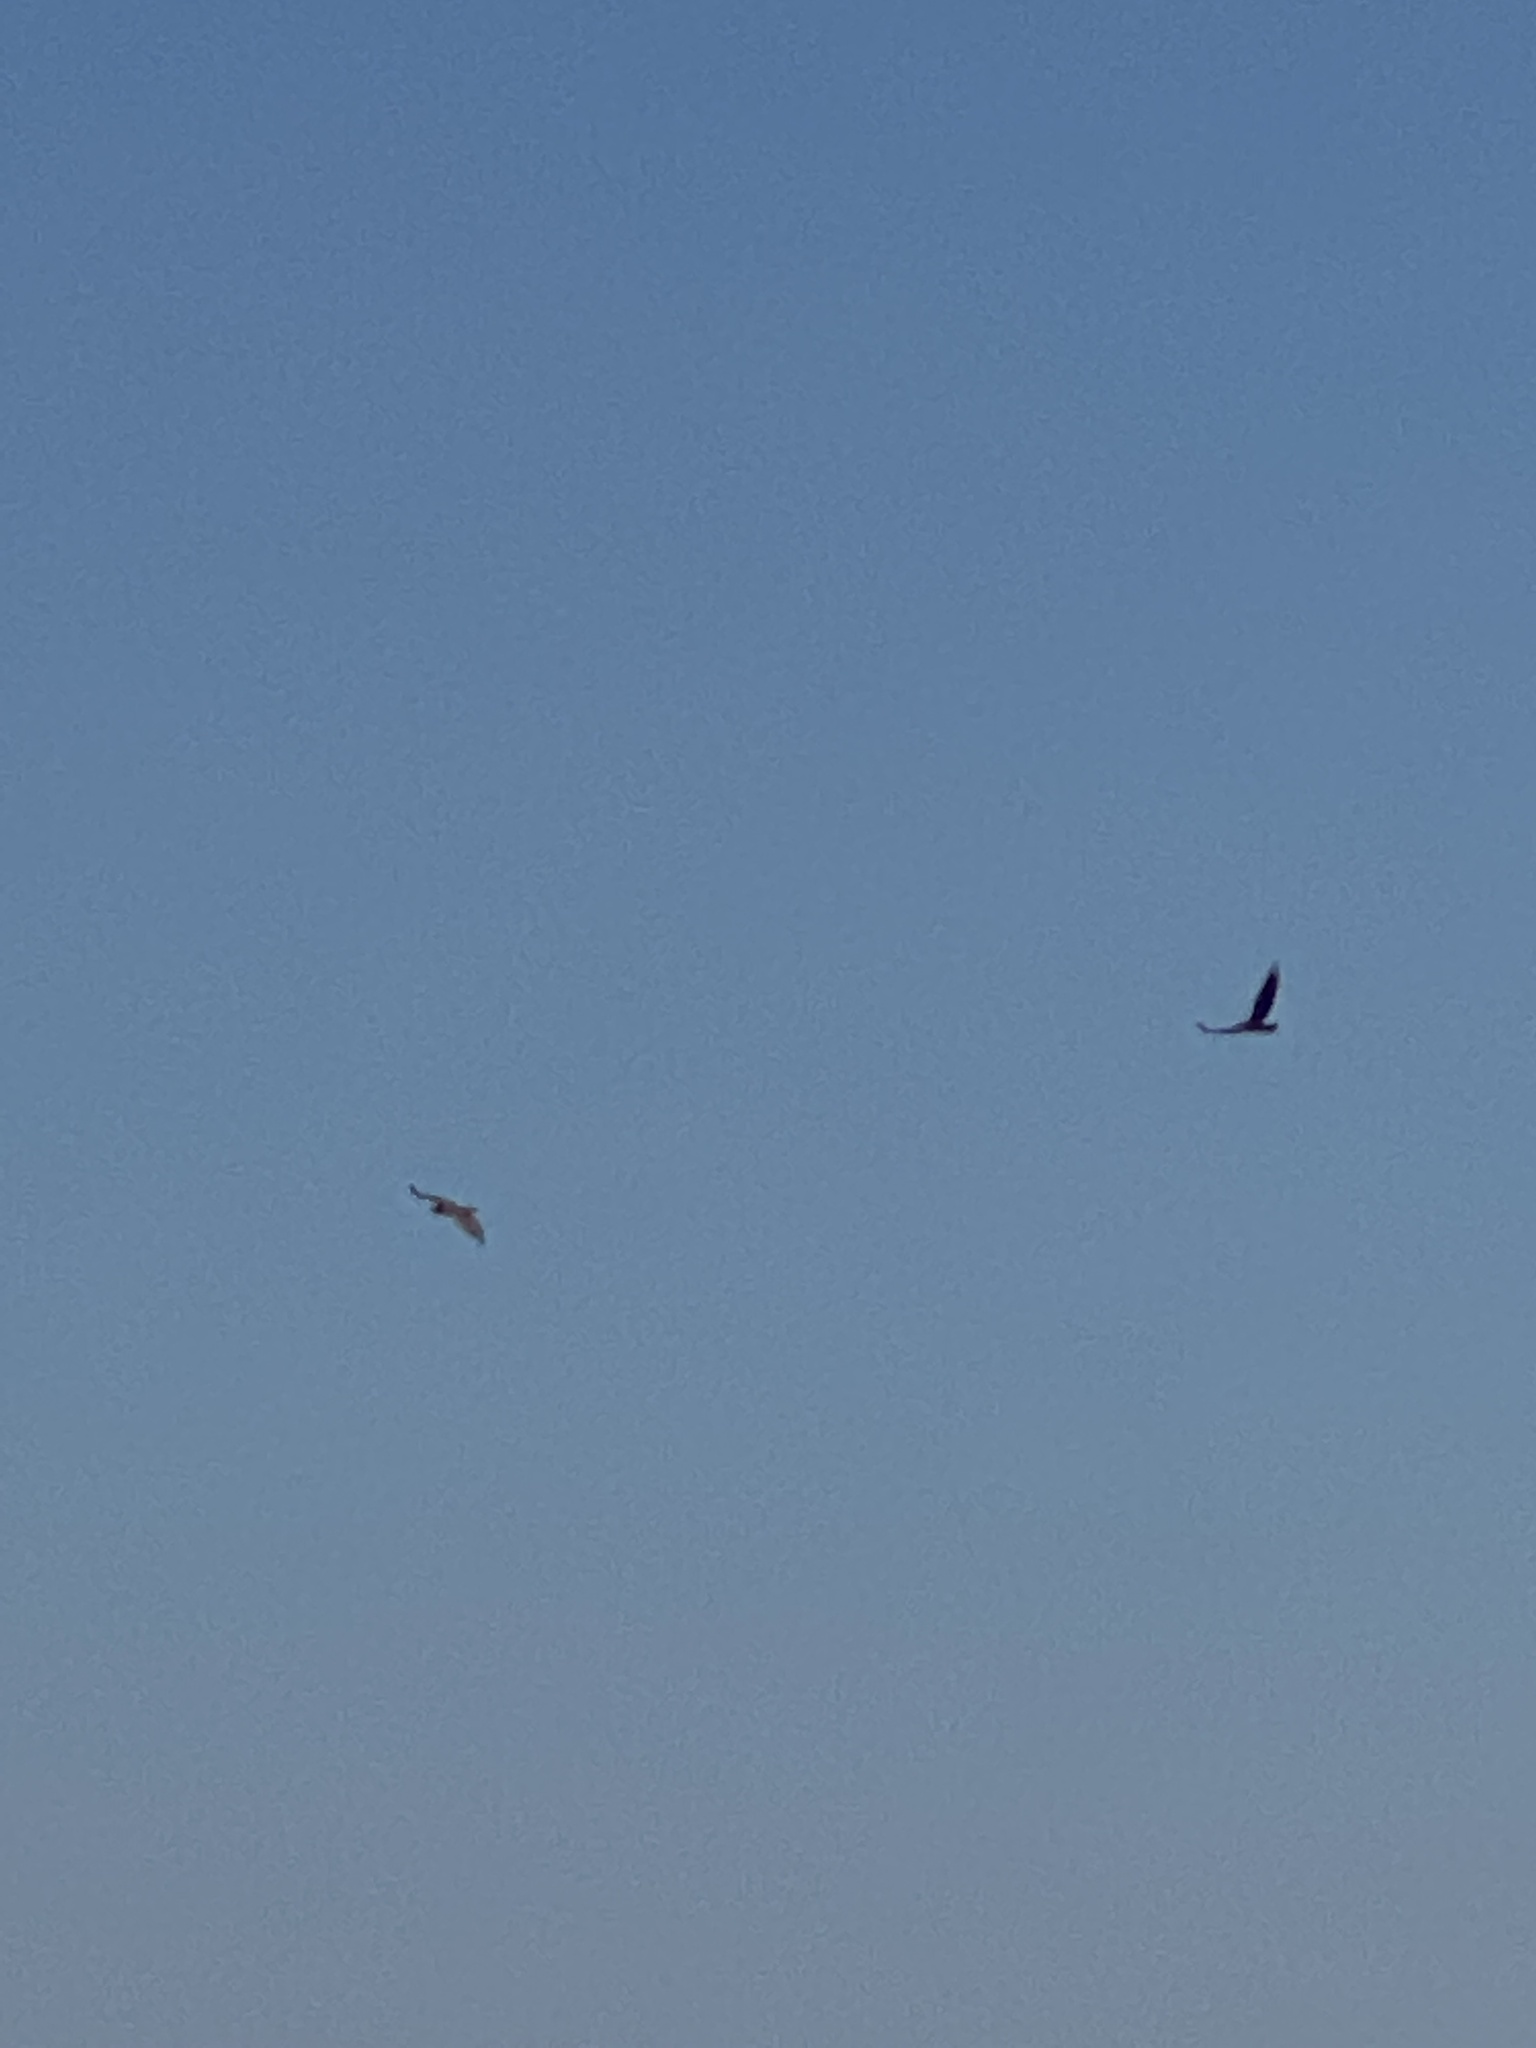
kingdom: Animalia
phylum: Chordata
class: Aves
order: Accipitriformes
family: Accipitridae
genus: Circaetus
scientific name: Circaetus gallicus
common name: Short-toed snake eagle
